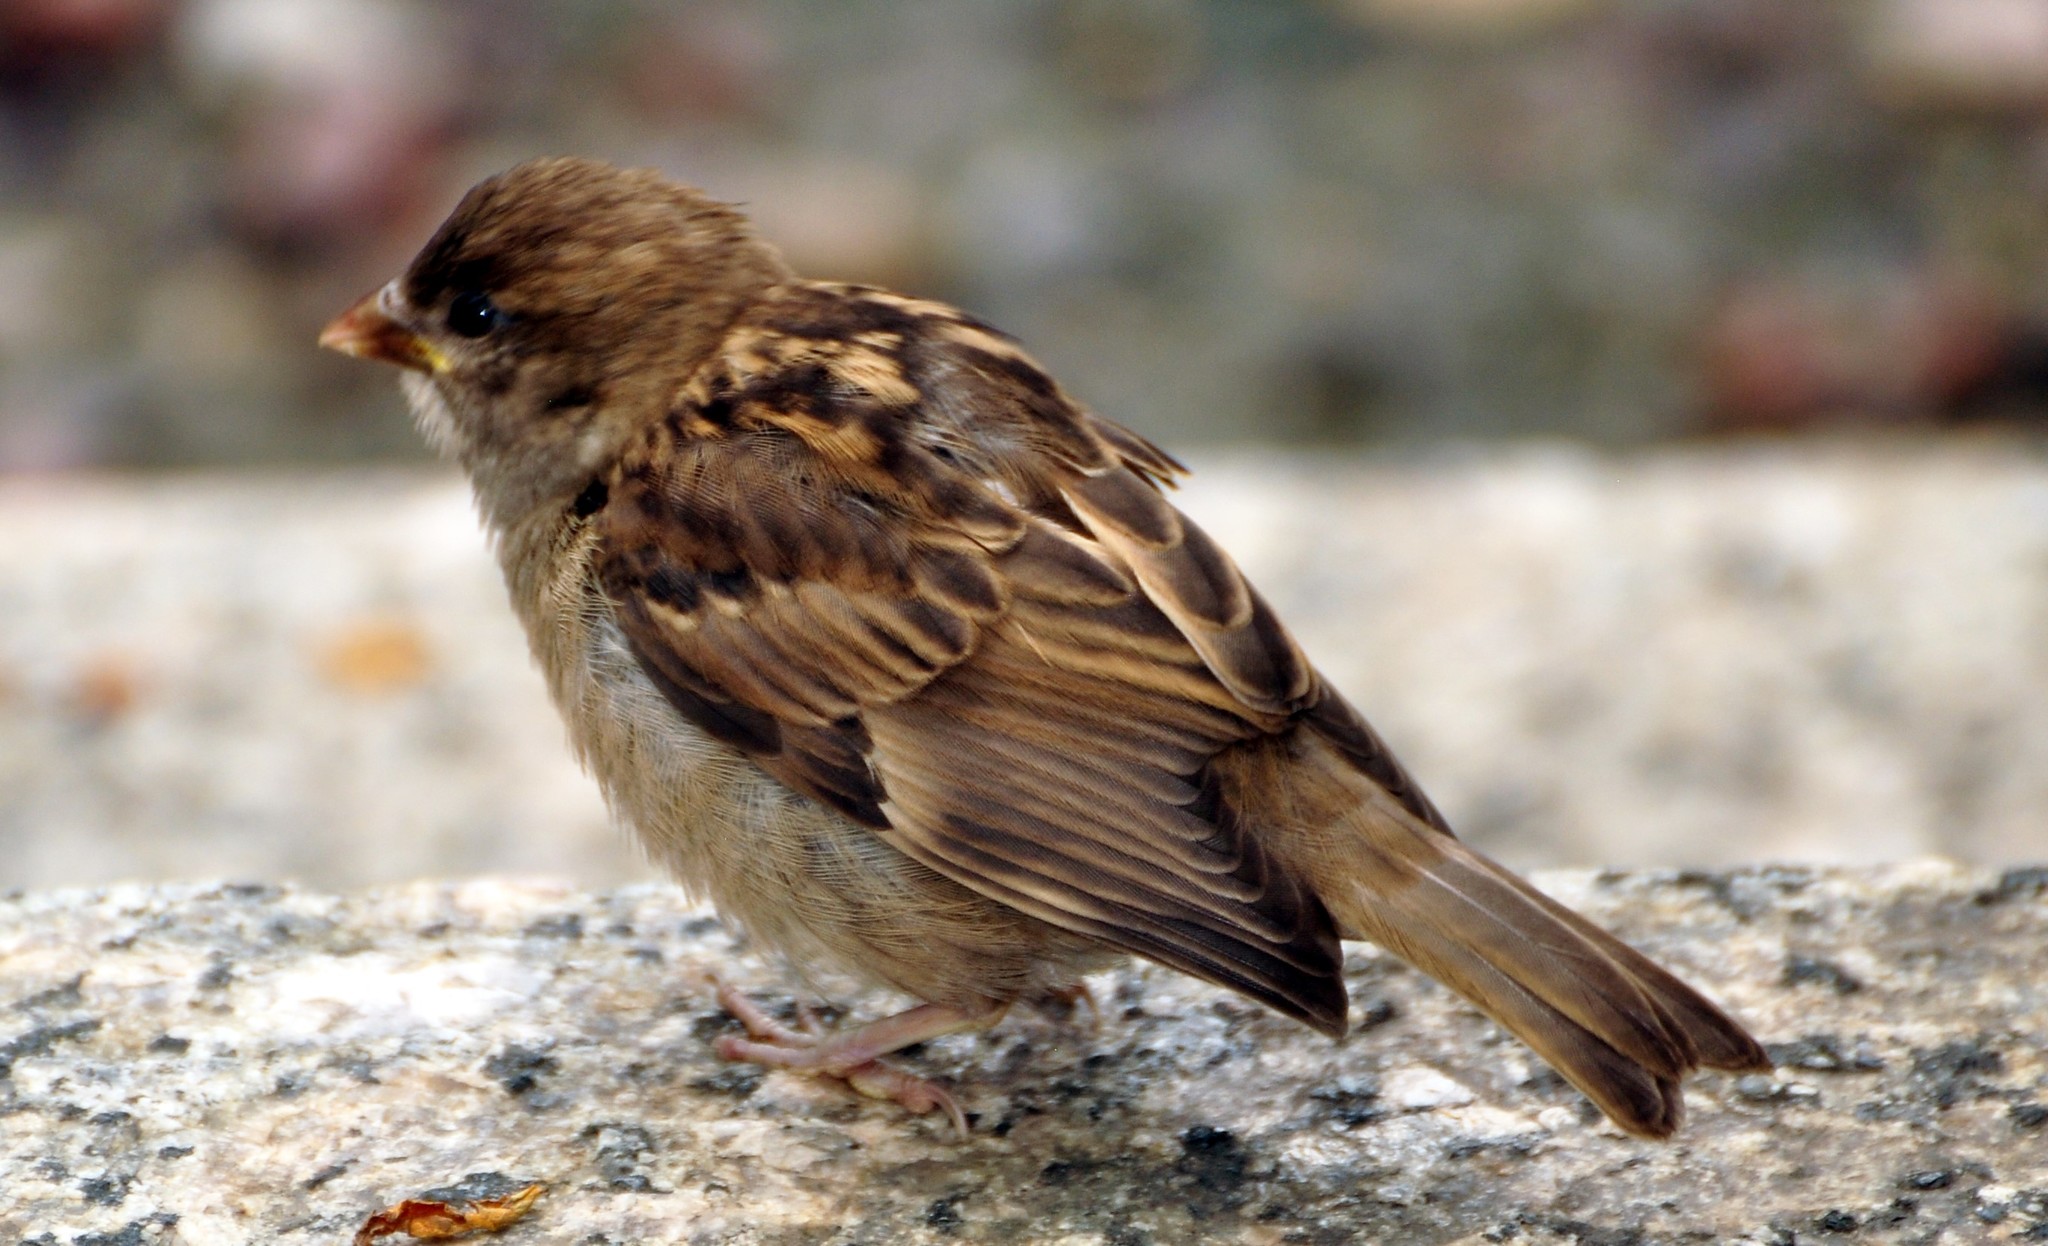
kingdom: Animalia
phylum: Chordata
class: Aves
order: Passeriformes
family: Passeridae
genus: Passer
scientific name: Passer domesticus
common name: House sparrow
